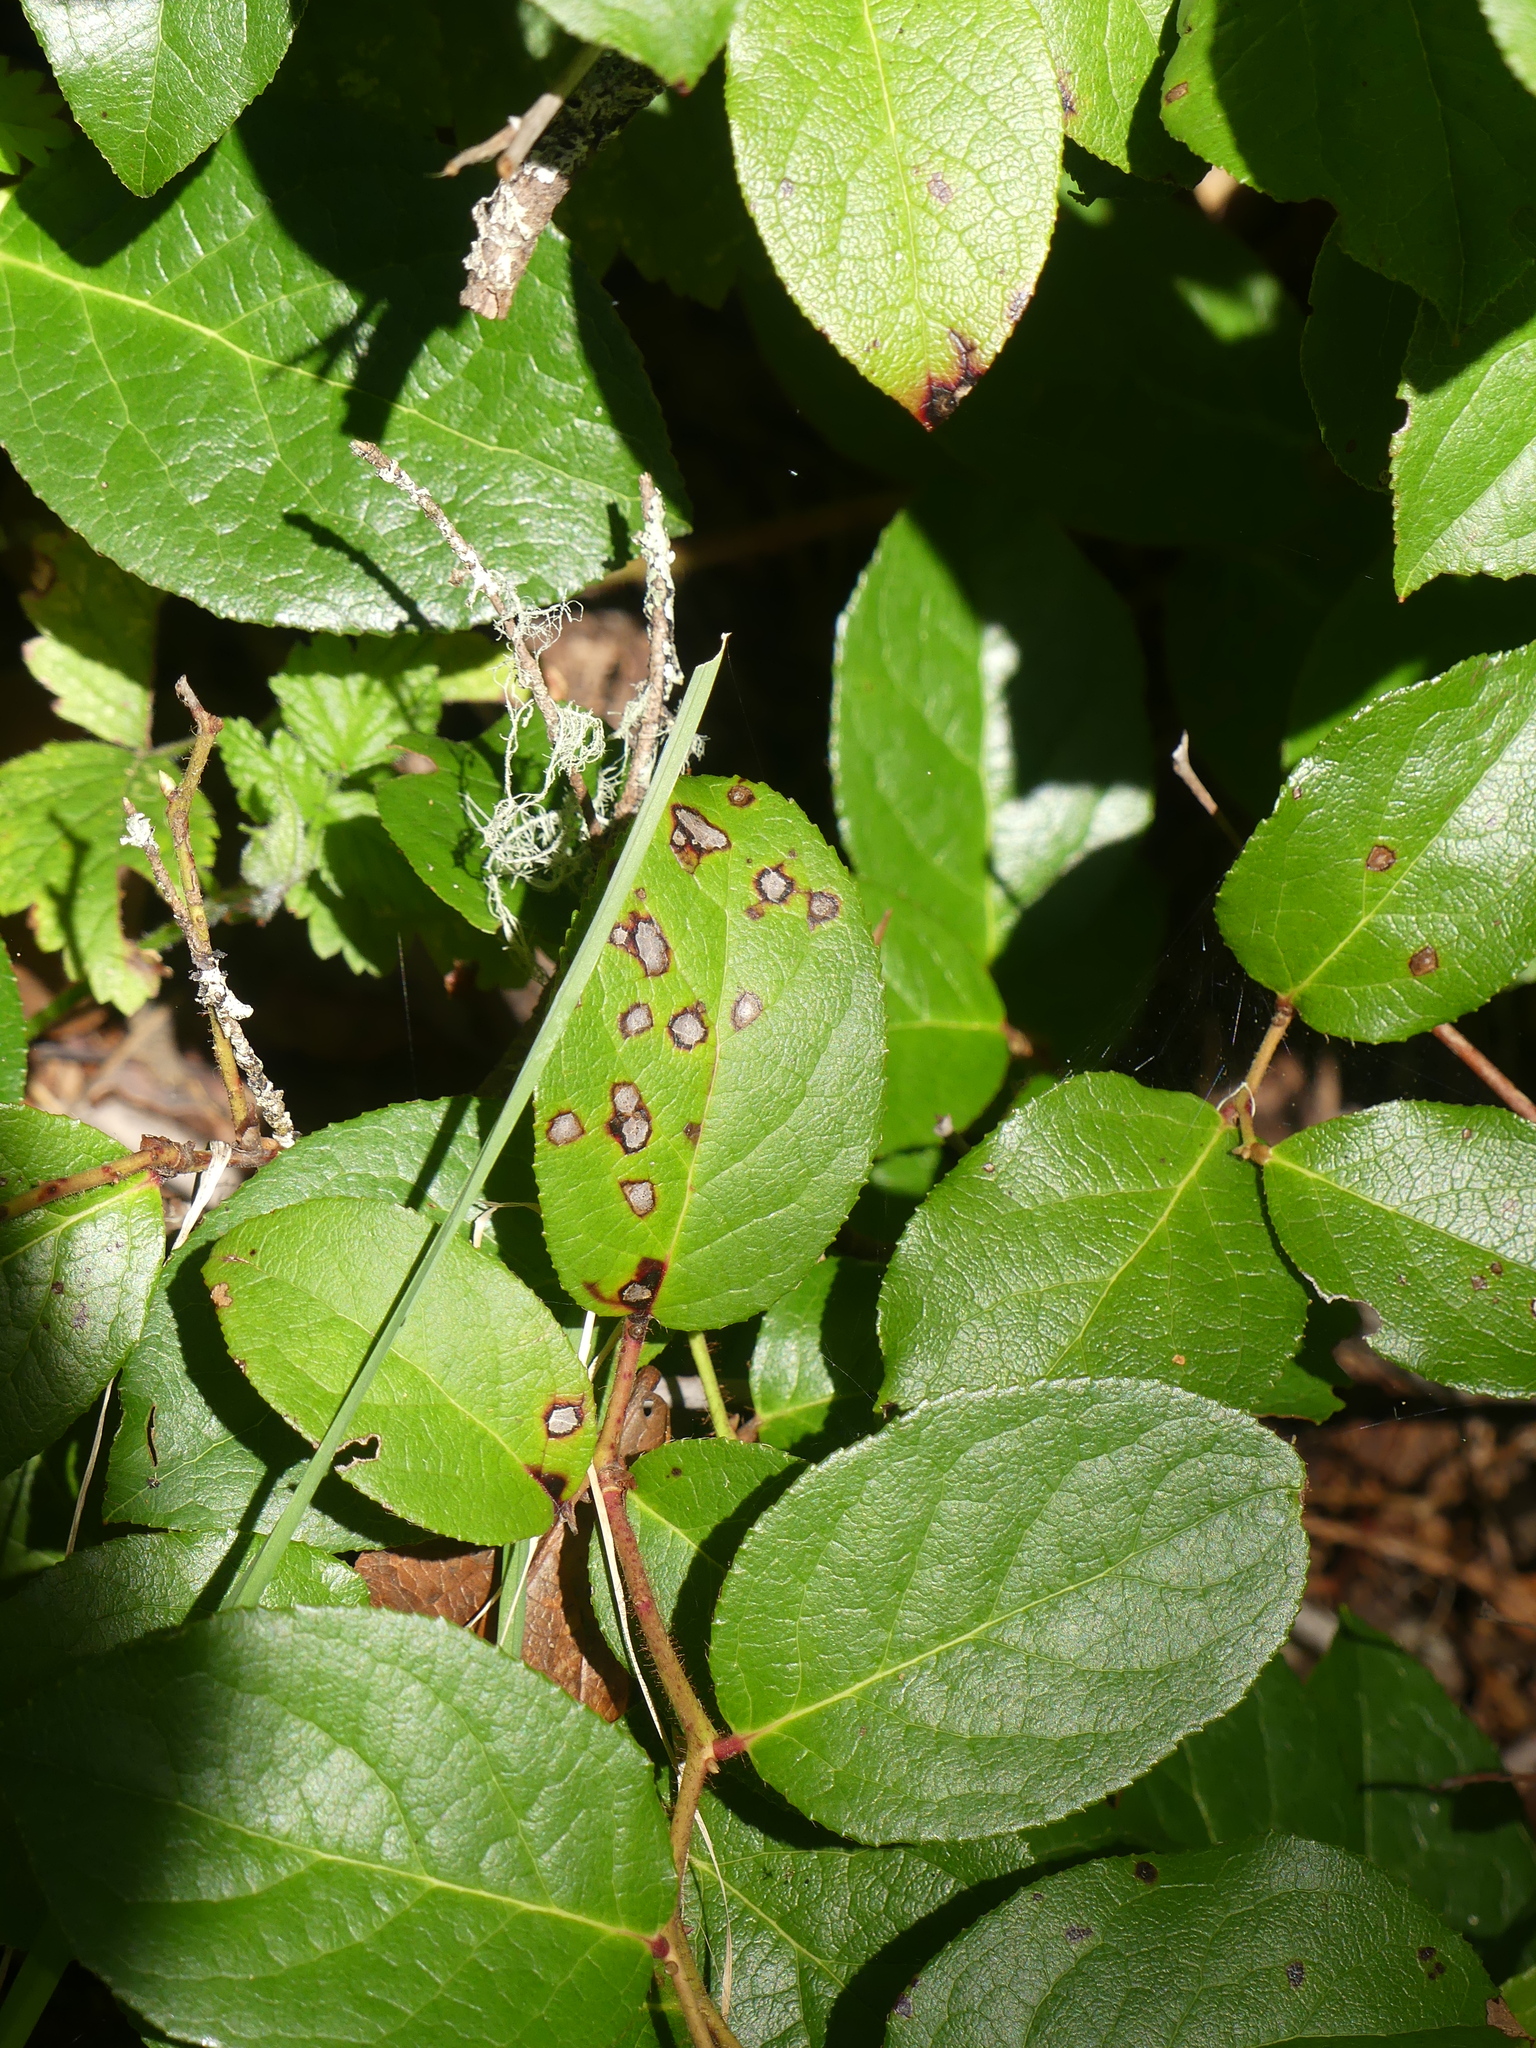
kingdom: Plantae
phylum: Tracheophyta
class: Magnoliopsida
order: Ericales
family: Ericaceae
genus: Gaultheria
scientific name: Gaultheria shallon
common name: Shallon
